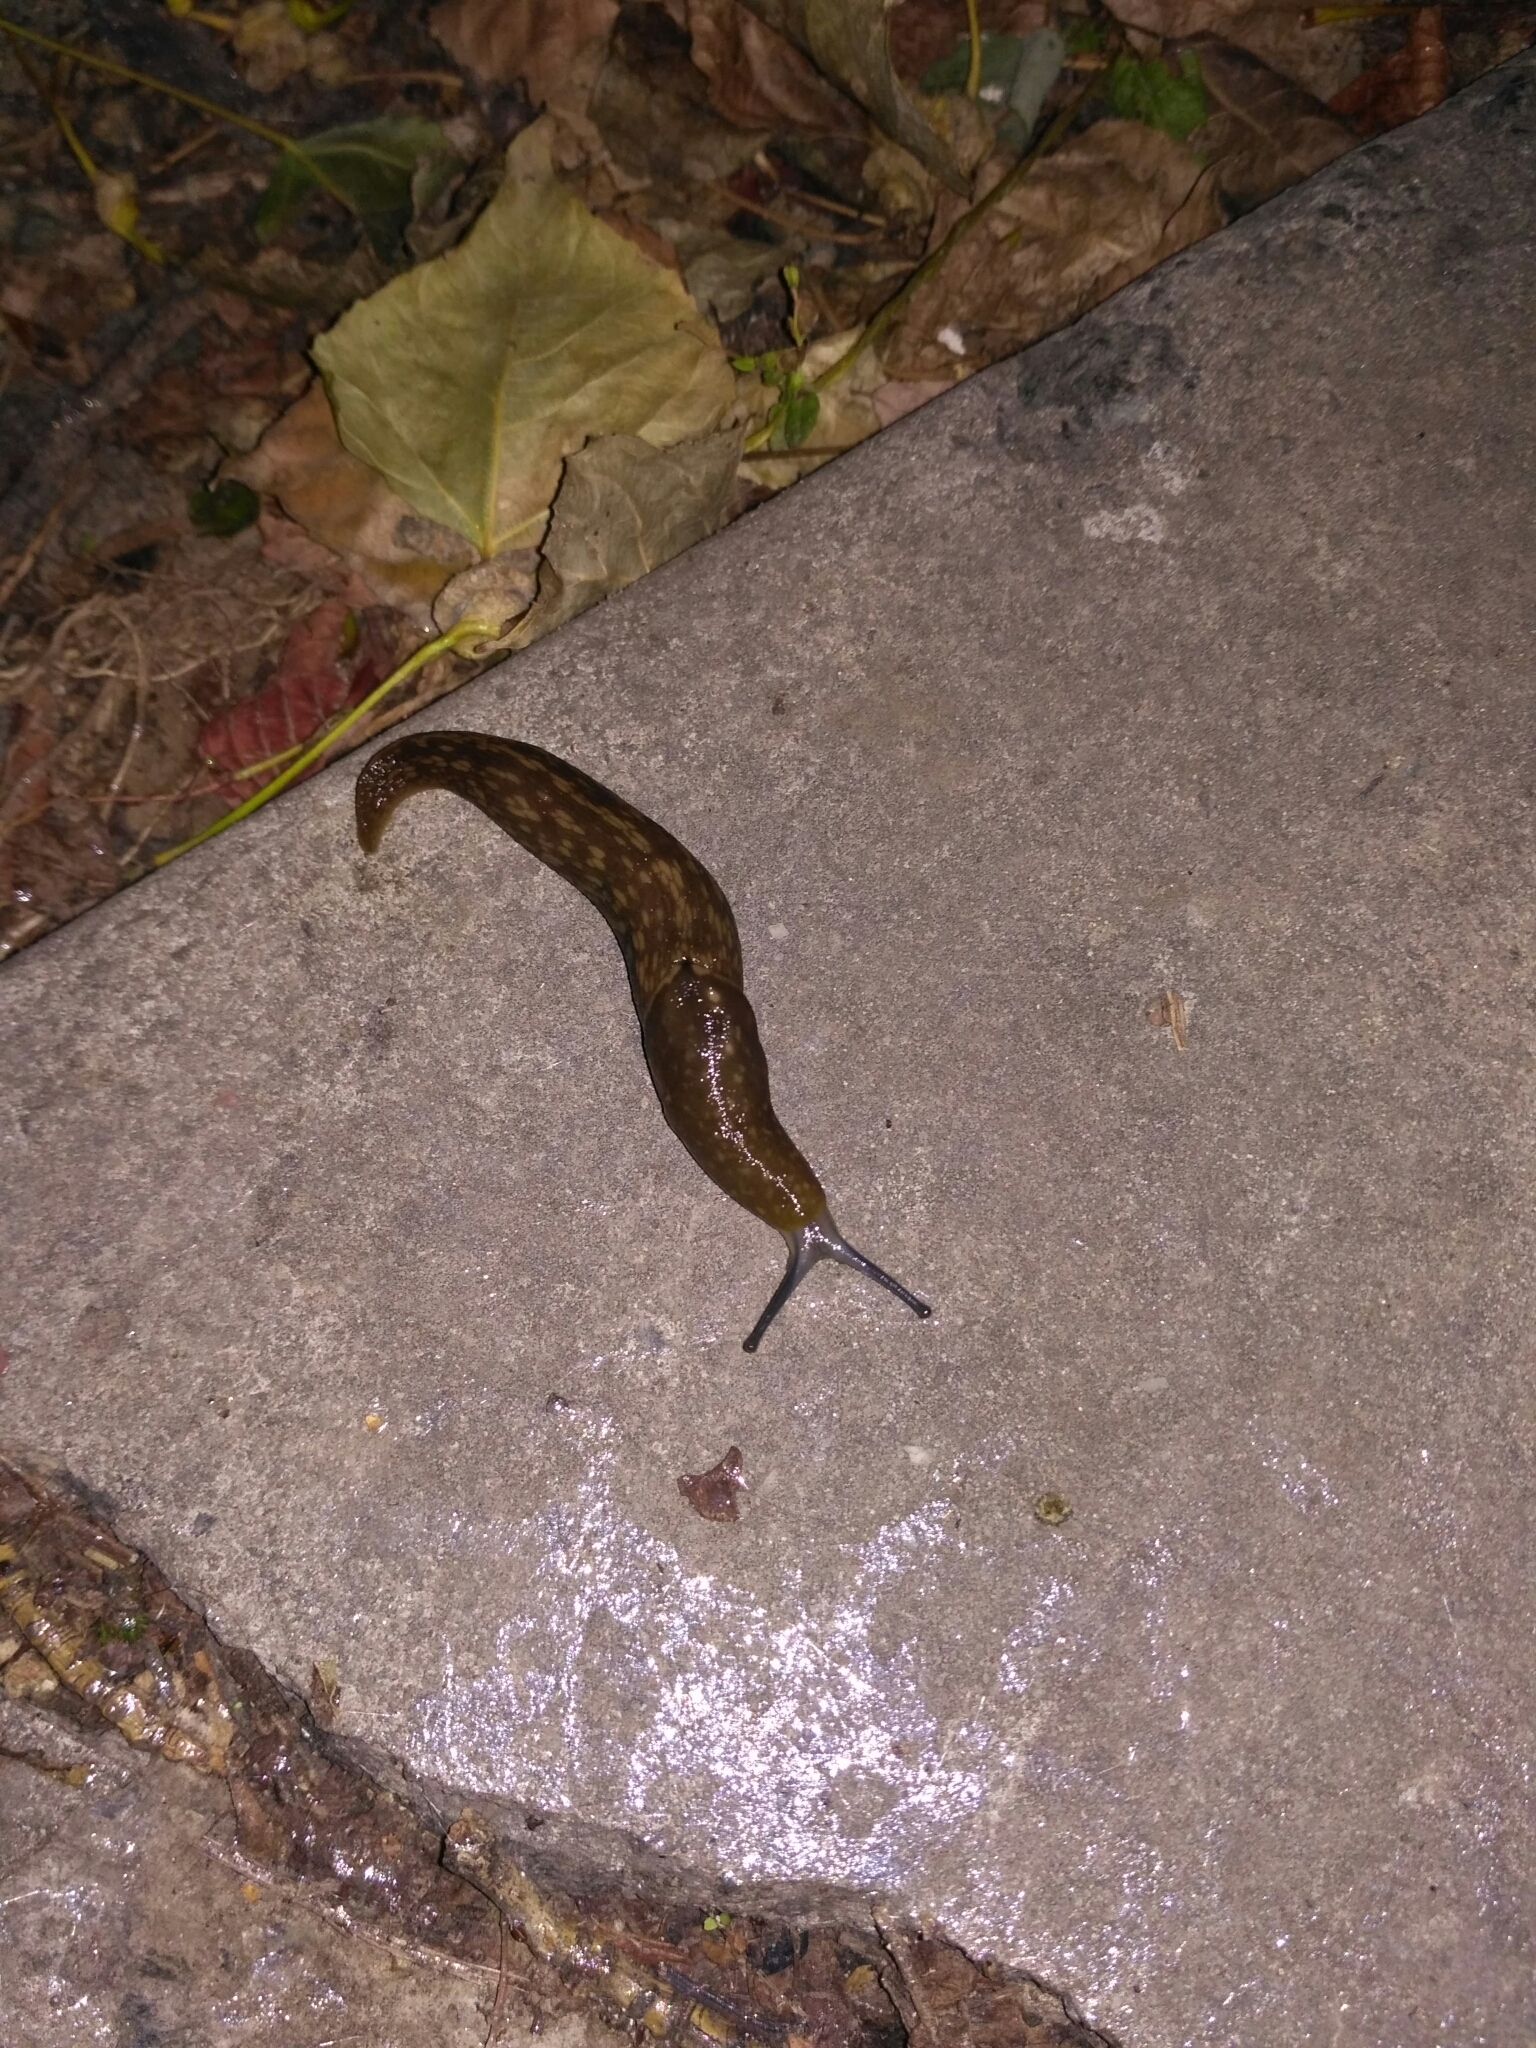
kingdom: Animalia
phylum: Mollusca
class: Gastropoda
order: Stylommatophora
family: Limacidae
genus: Limacus
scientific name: Limacus flavus
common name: Yellow gardenslug
